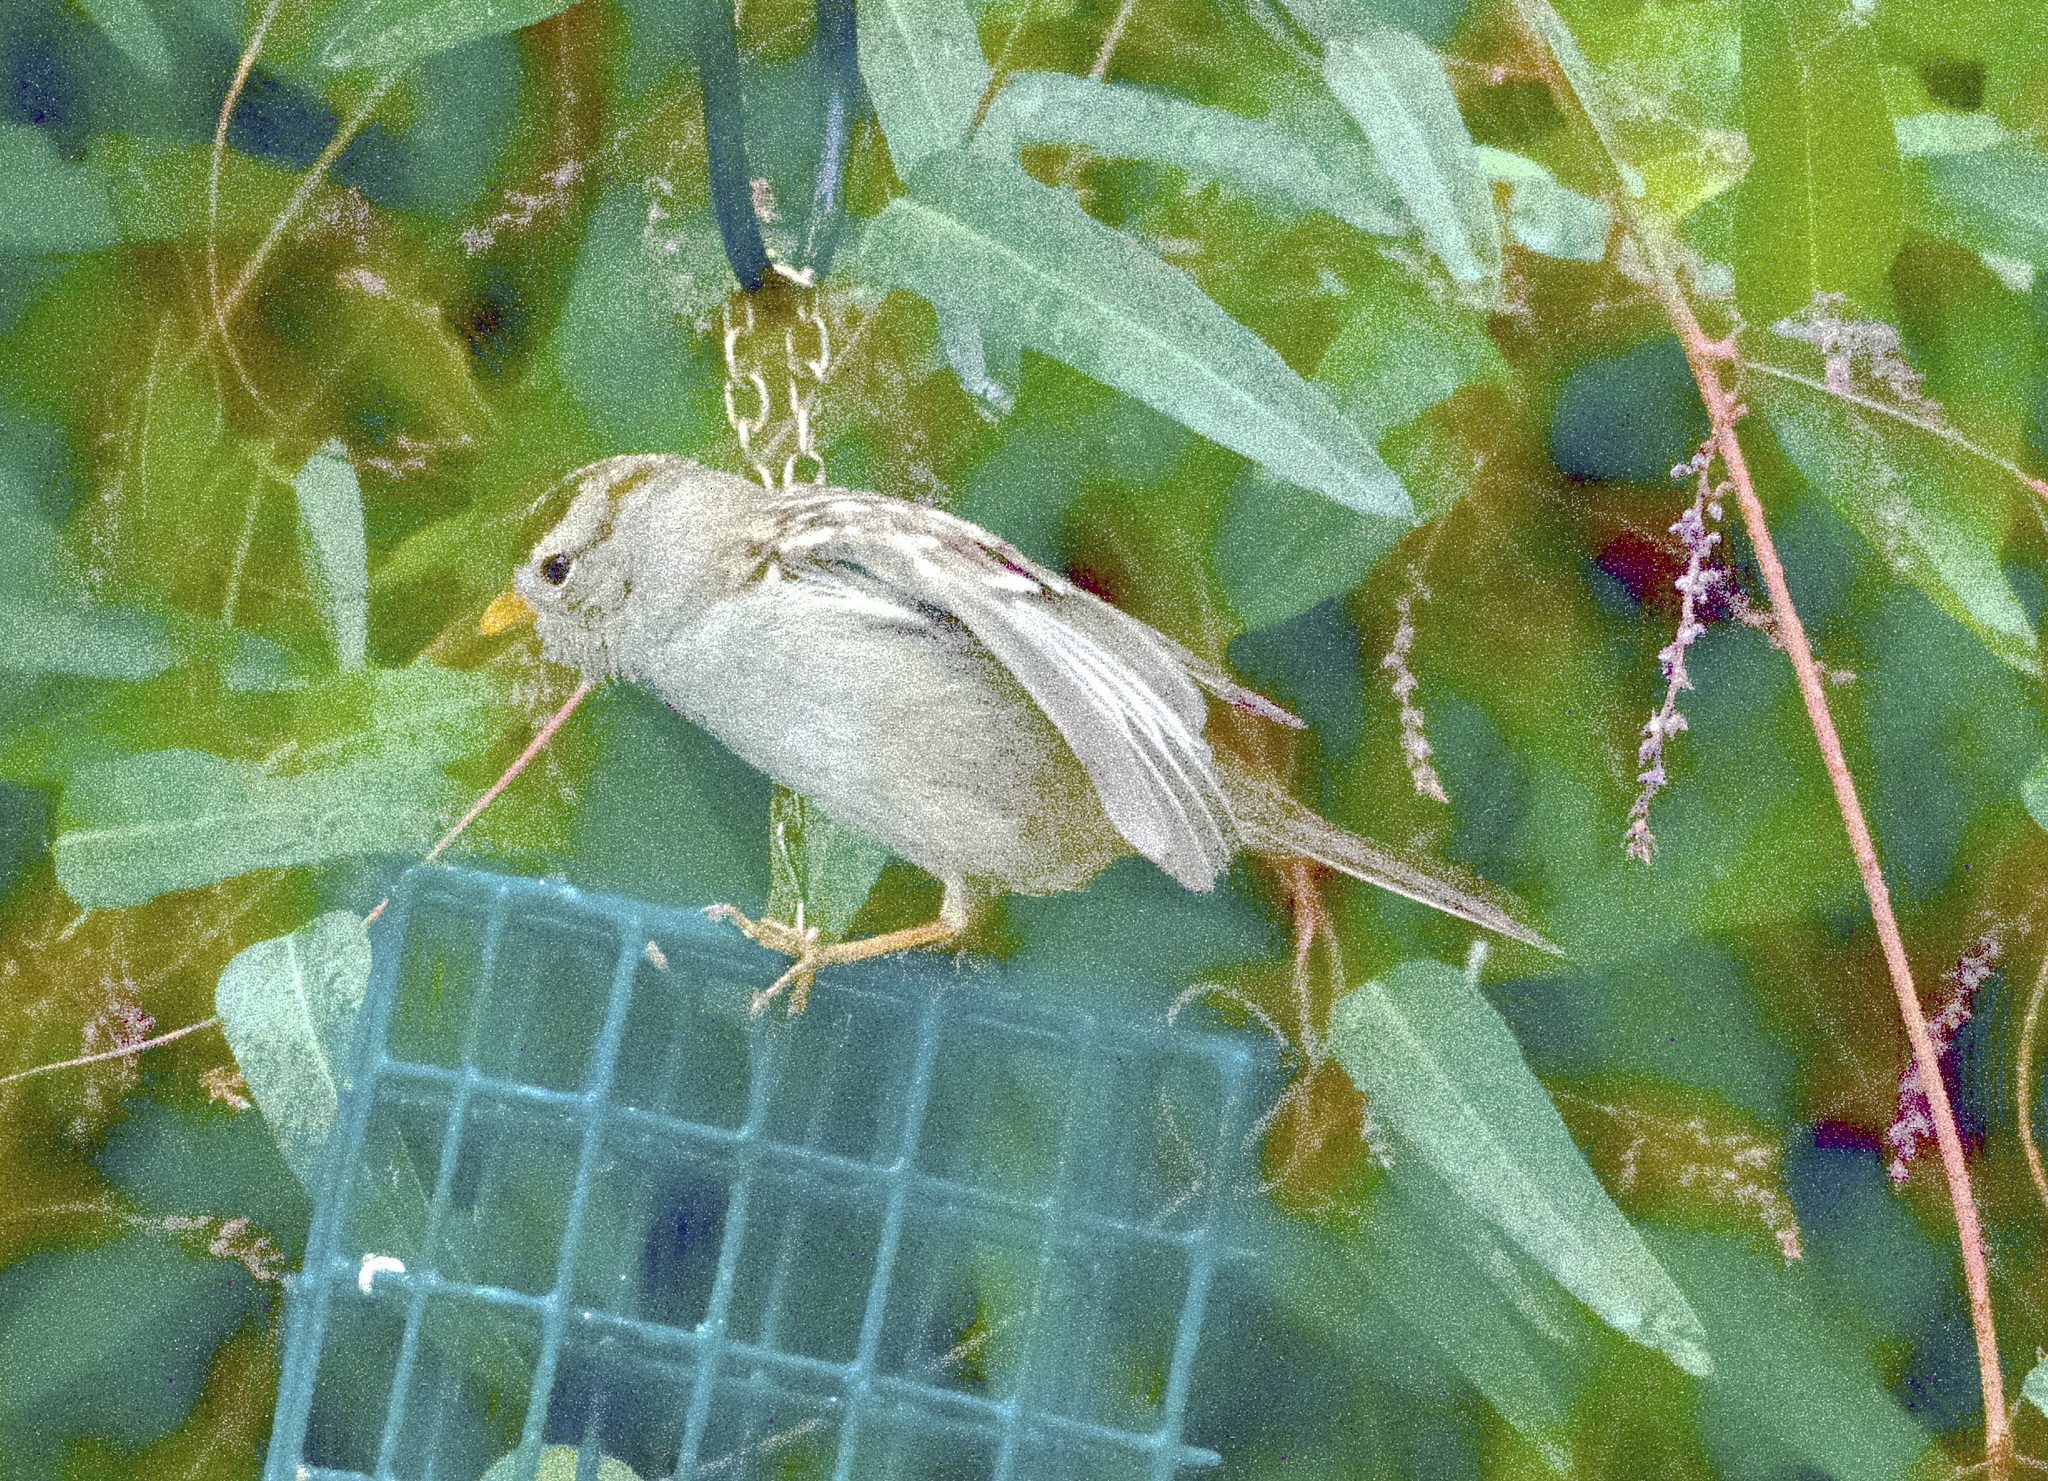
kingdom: Animalia
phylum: Chordata
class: Aves
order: Passeriformes
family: Passerellidae
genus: Zonotrichia
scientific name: Zonotrichia leucophrys
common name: White-crowned sparrow
